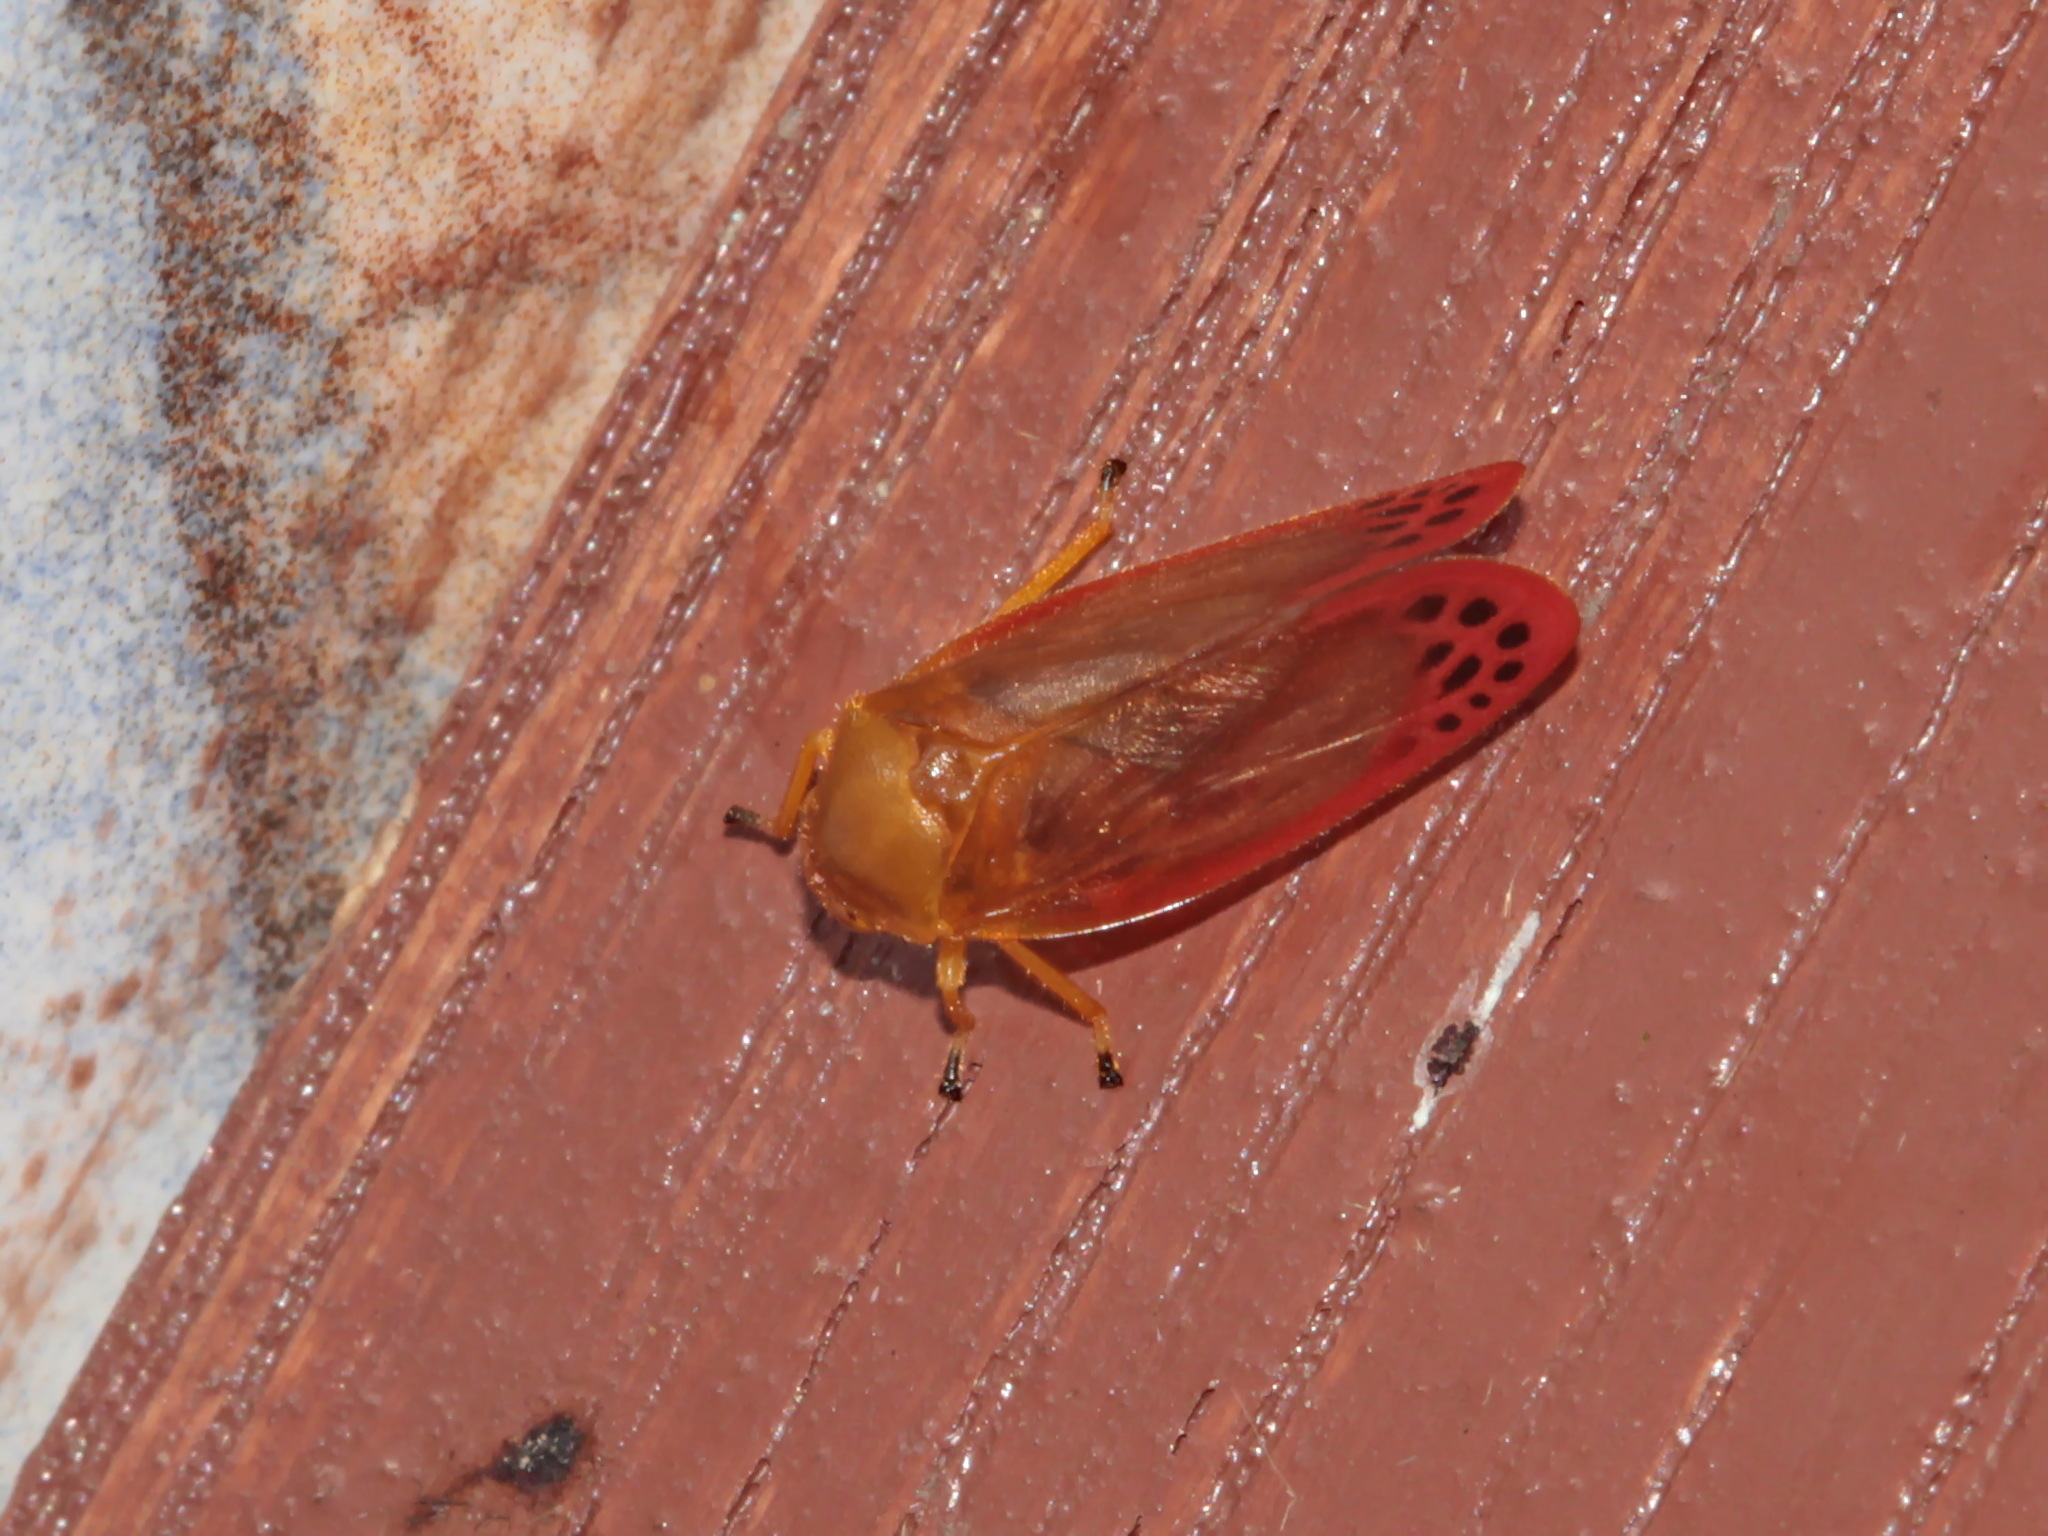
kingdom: Animalia
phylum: Arthropoda
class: Insecta
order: Hemiptera
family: Cercopidae
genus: Eoscarta
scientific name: Eoscarta liternoides
